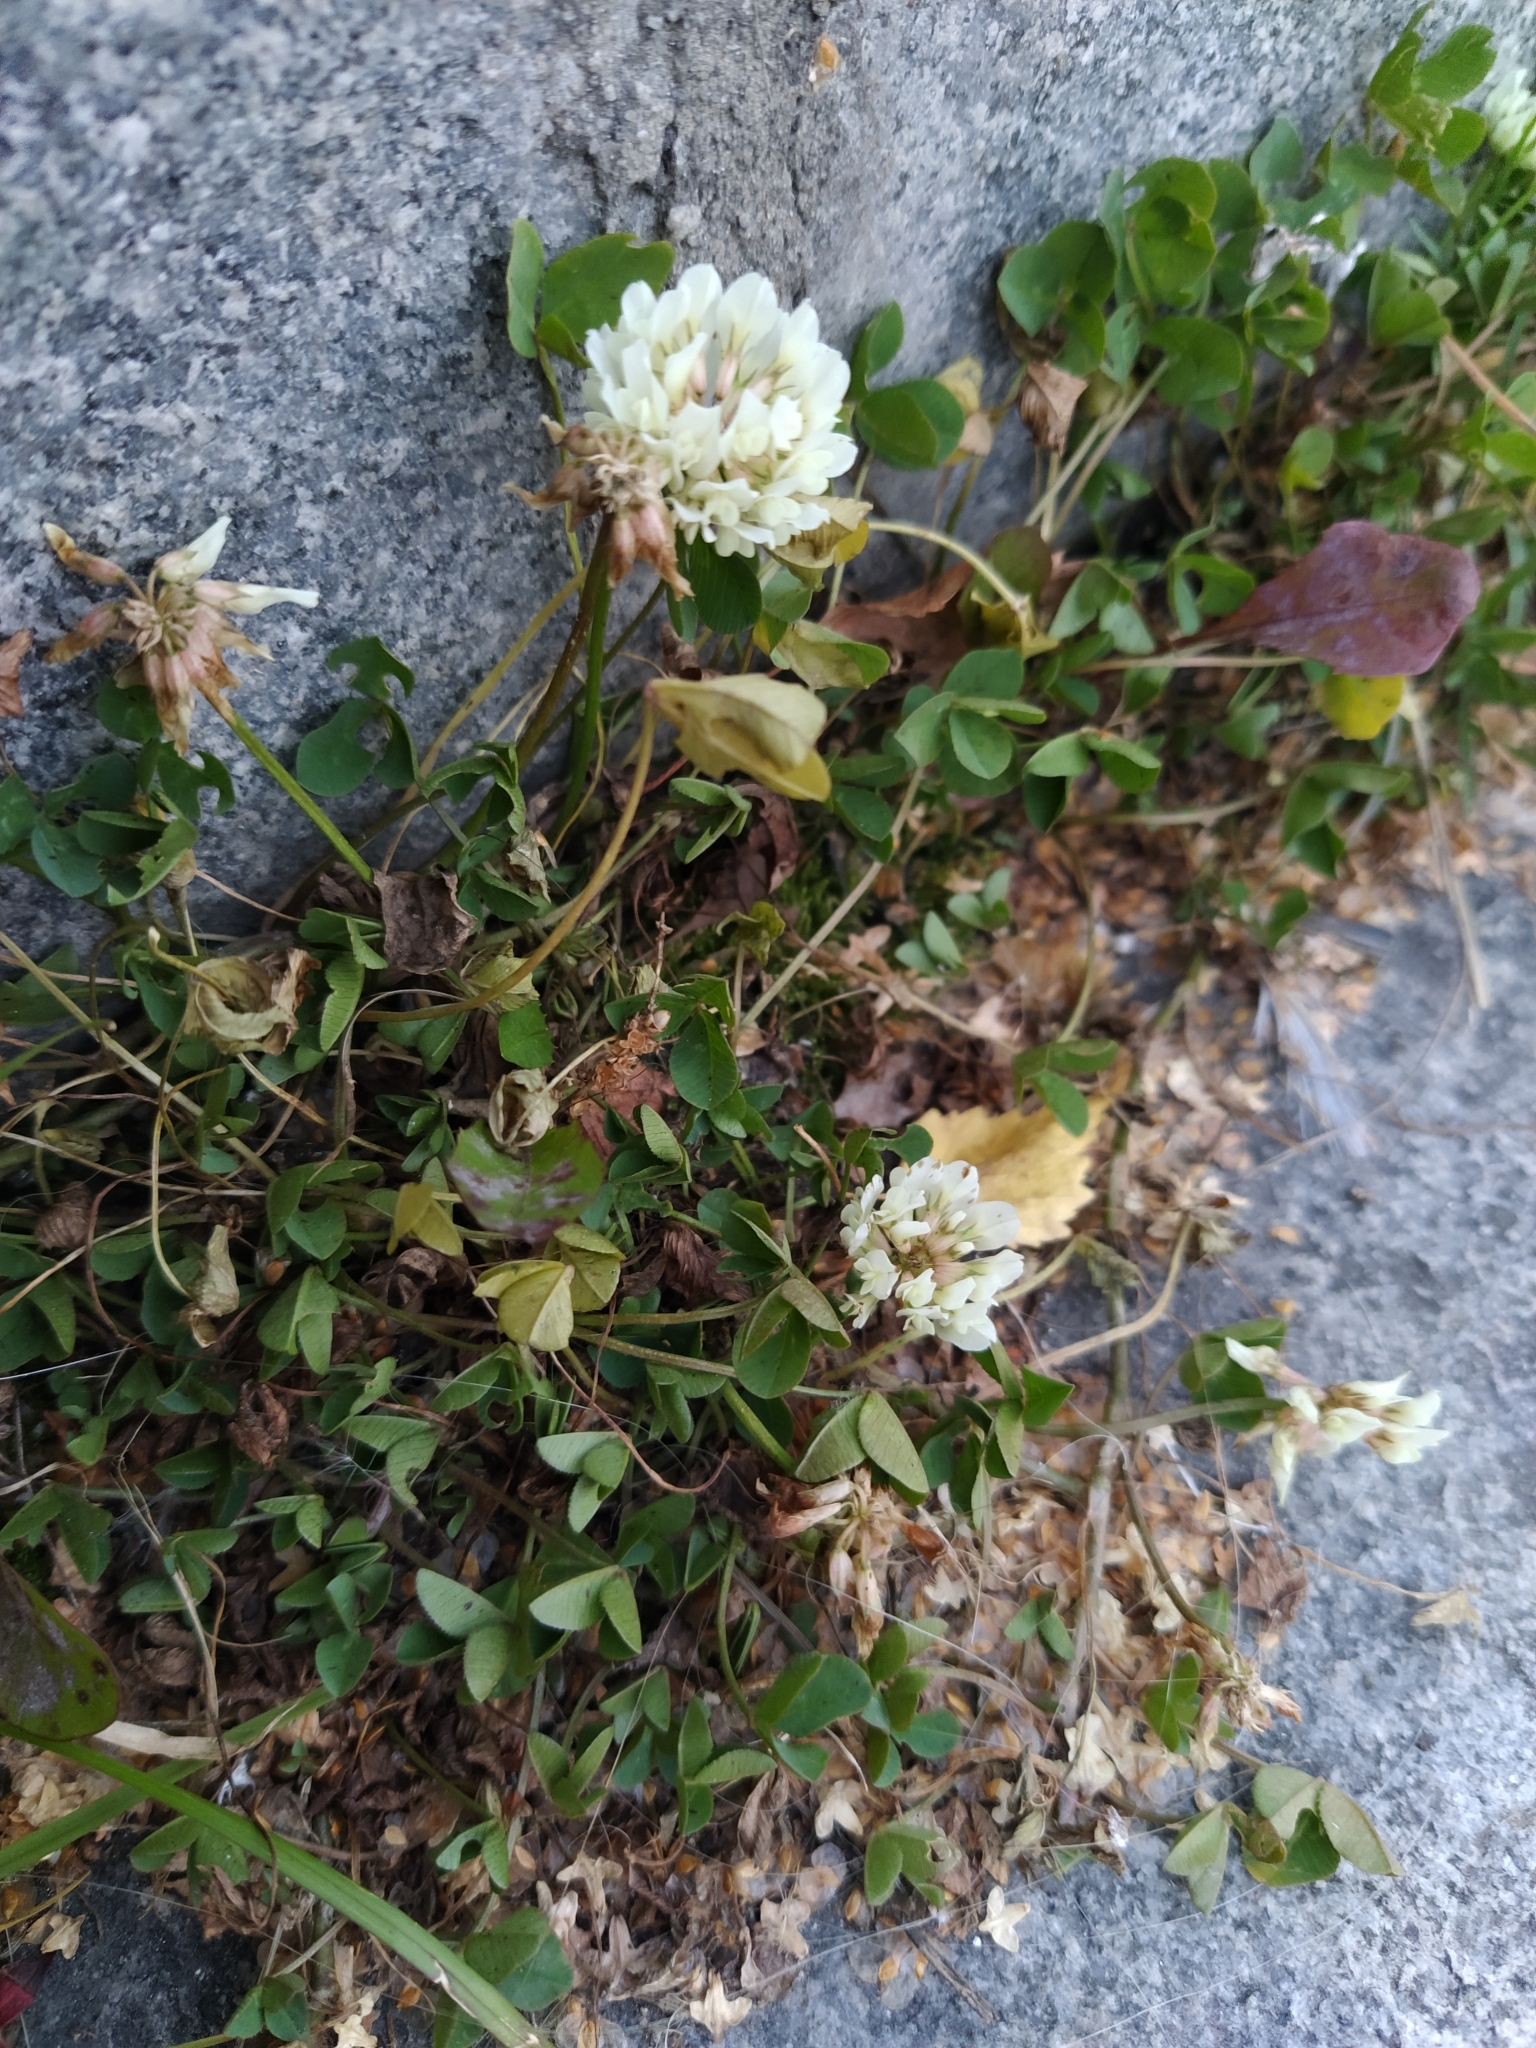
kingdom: Plantae
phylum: Tracheophyta
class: Magnoliopsida
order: Fabales
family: Fabaceae
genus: Trifolium
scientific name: Trifolium repens
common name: White clover
